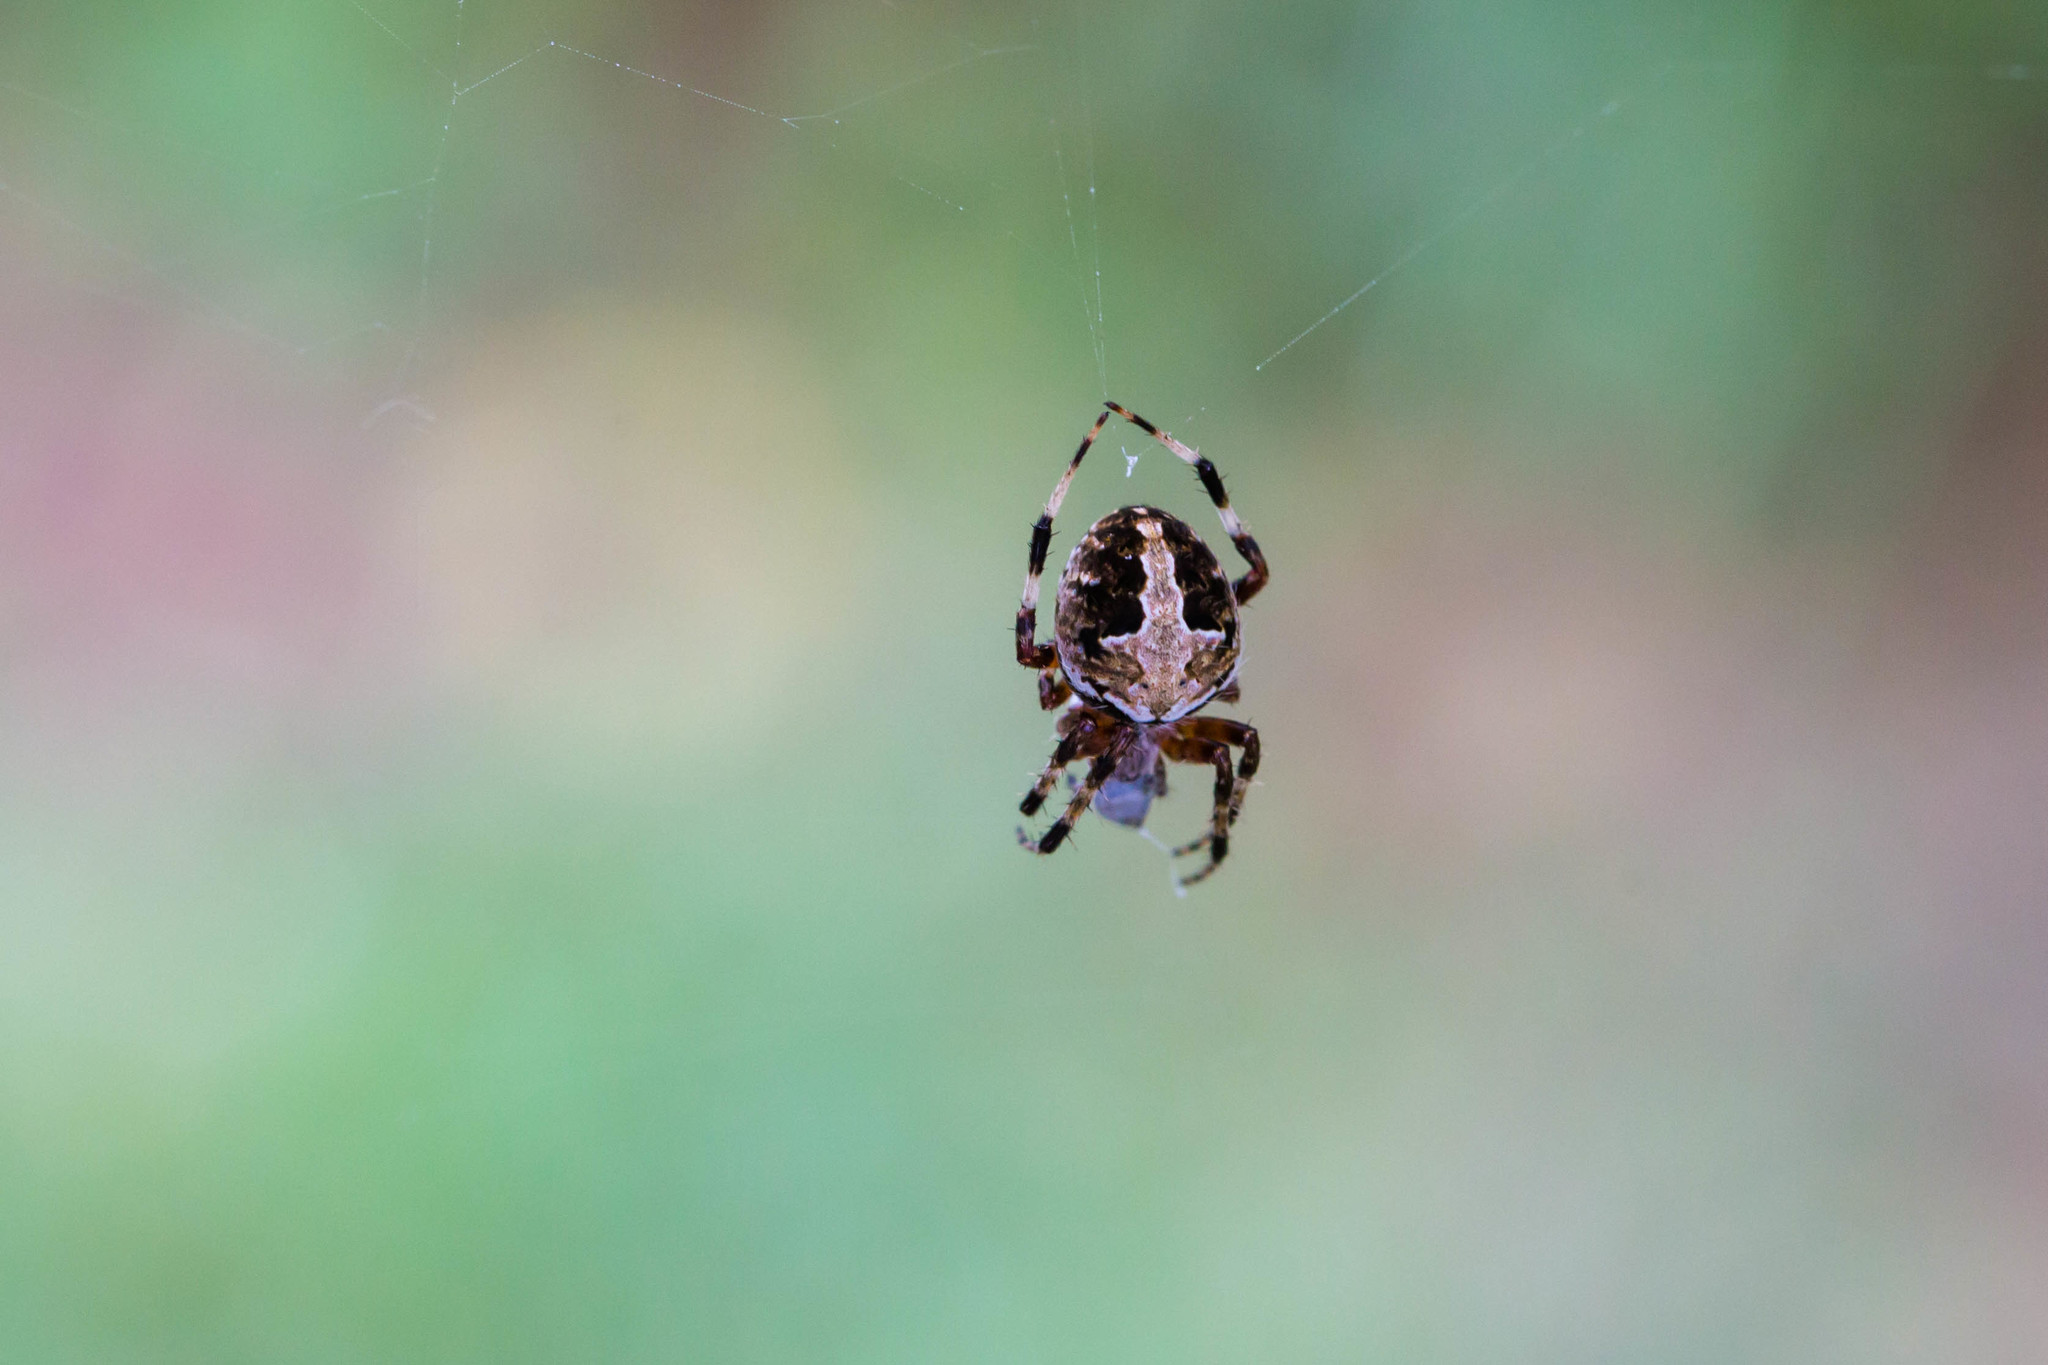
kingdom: Animalia
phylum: Arthropoda
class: Arachnida
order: Araneae
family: Araneidae
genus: Neoscona
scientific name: Neoscona domiciliorum
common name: Red-femured spotted orbweaver
